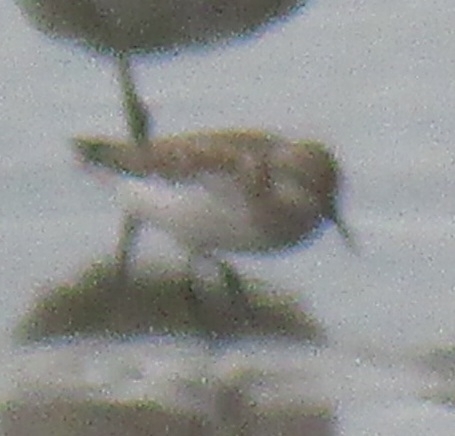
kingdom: Animalia
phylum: Chordata
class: Aves
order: Charadriiformes
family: Scolopacidae
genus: Calidris
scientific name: Calidris mauri
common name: Western sandpiper
